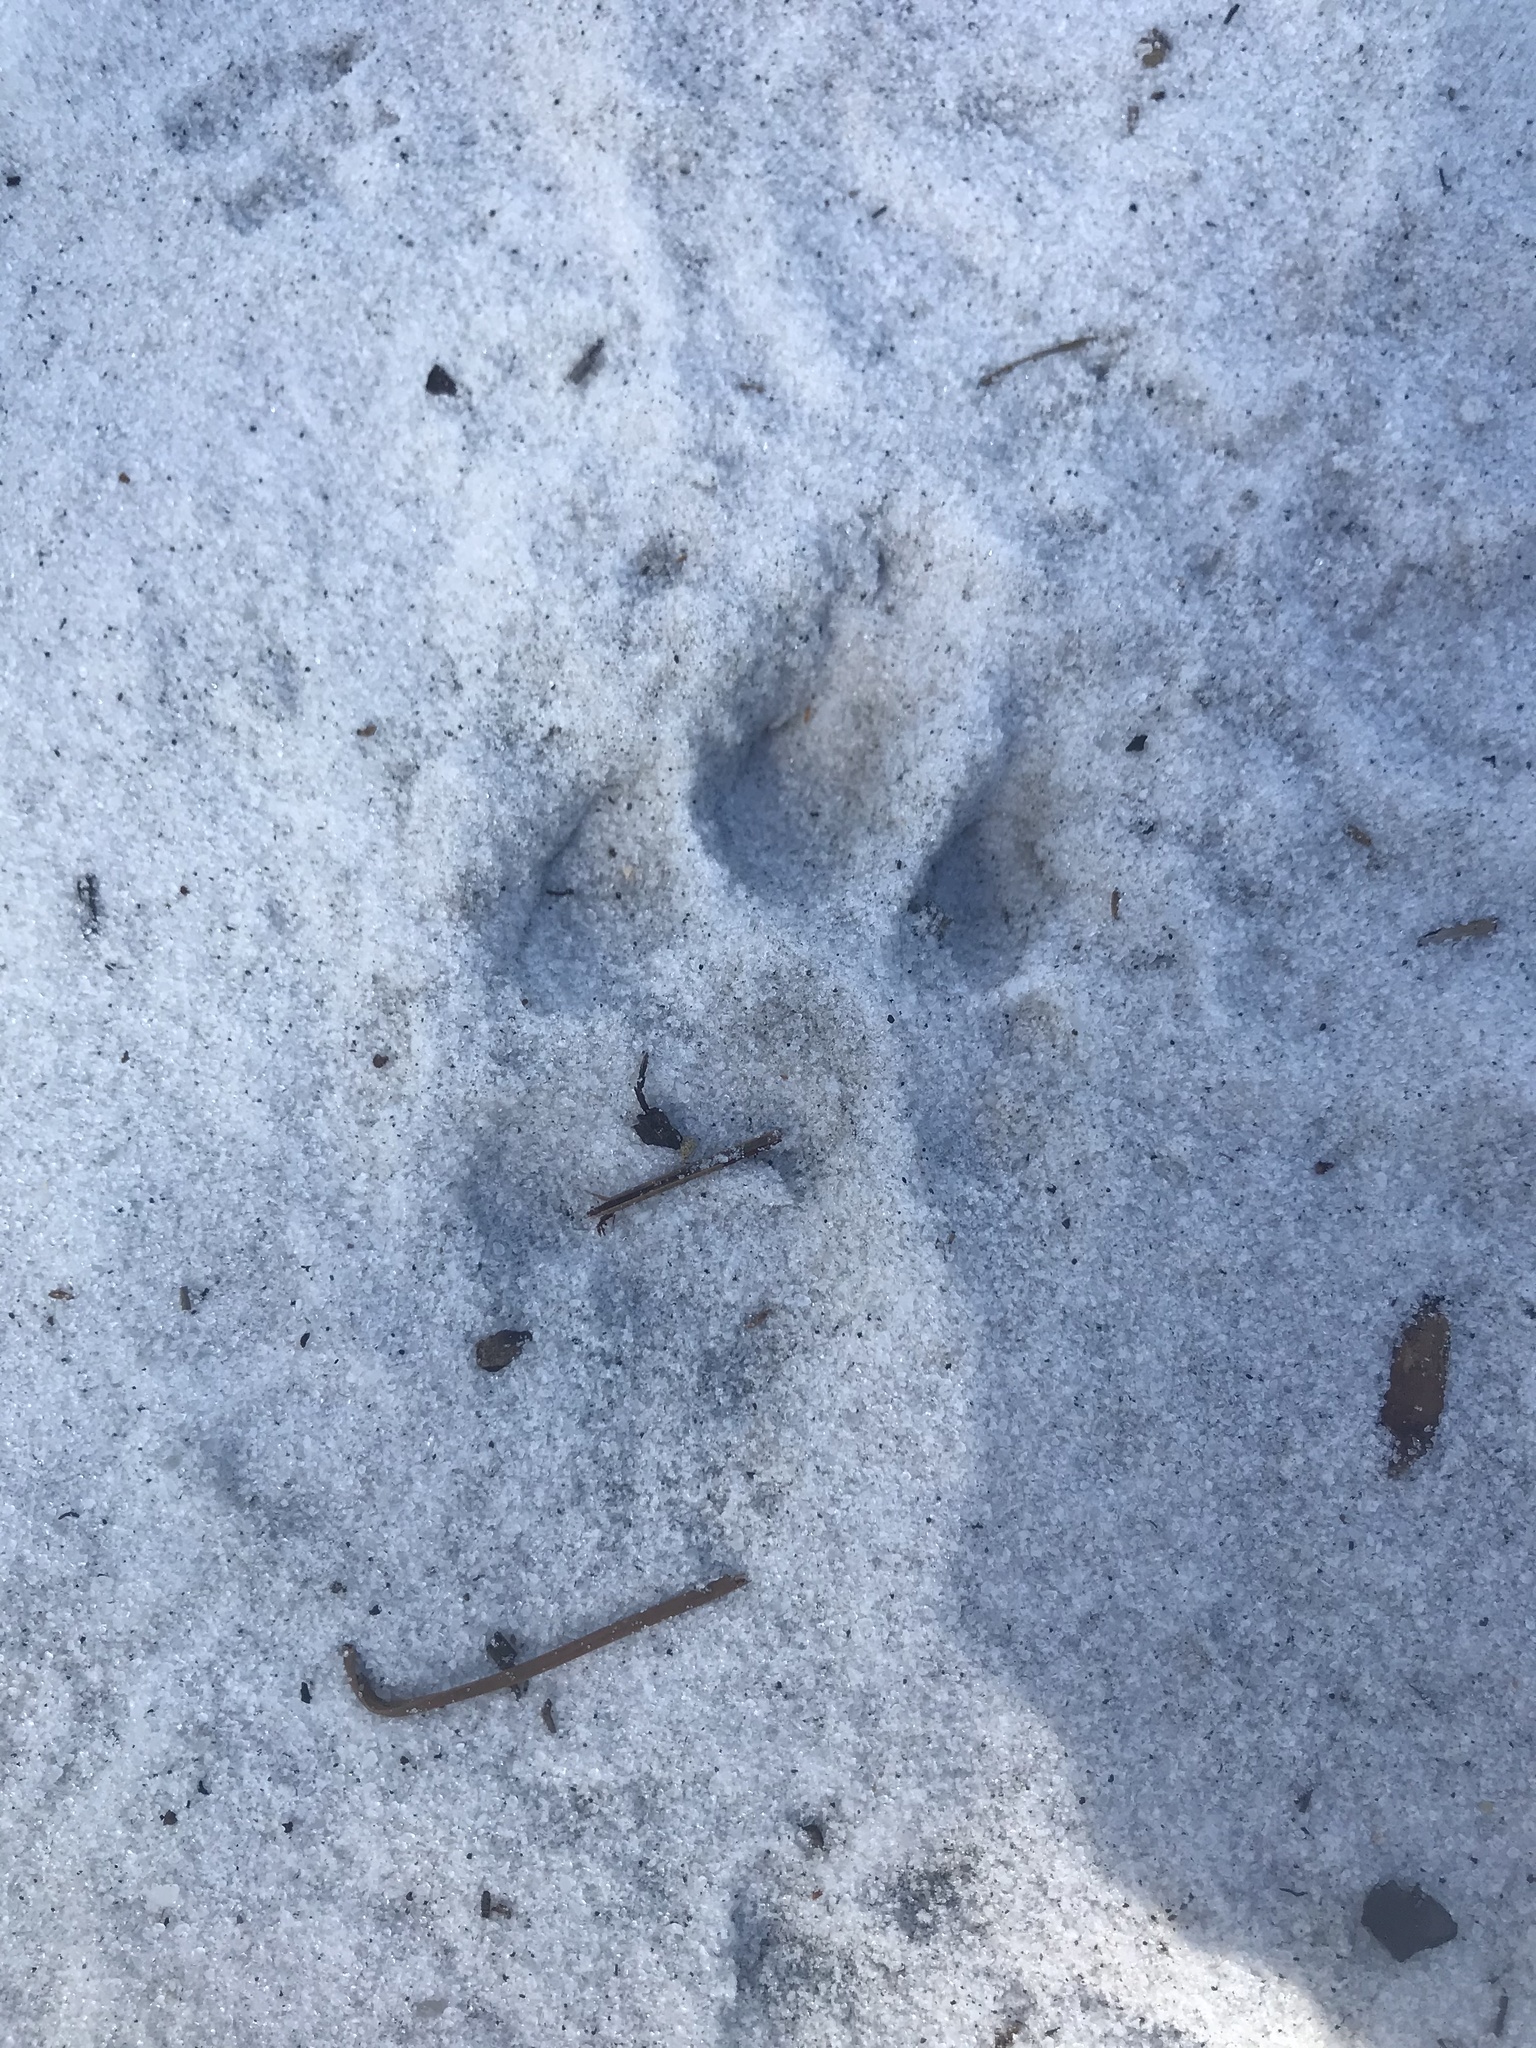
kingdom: Animalia
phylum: Chordata
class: Mammalia
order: Carnivora
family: Felidae
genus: Lynx
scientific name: Lynx rufus
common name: Bobcat
